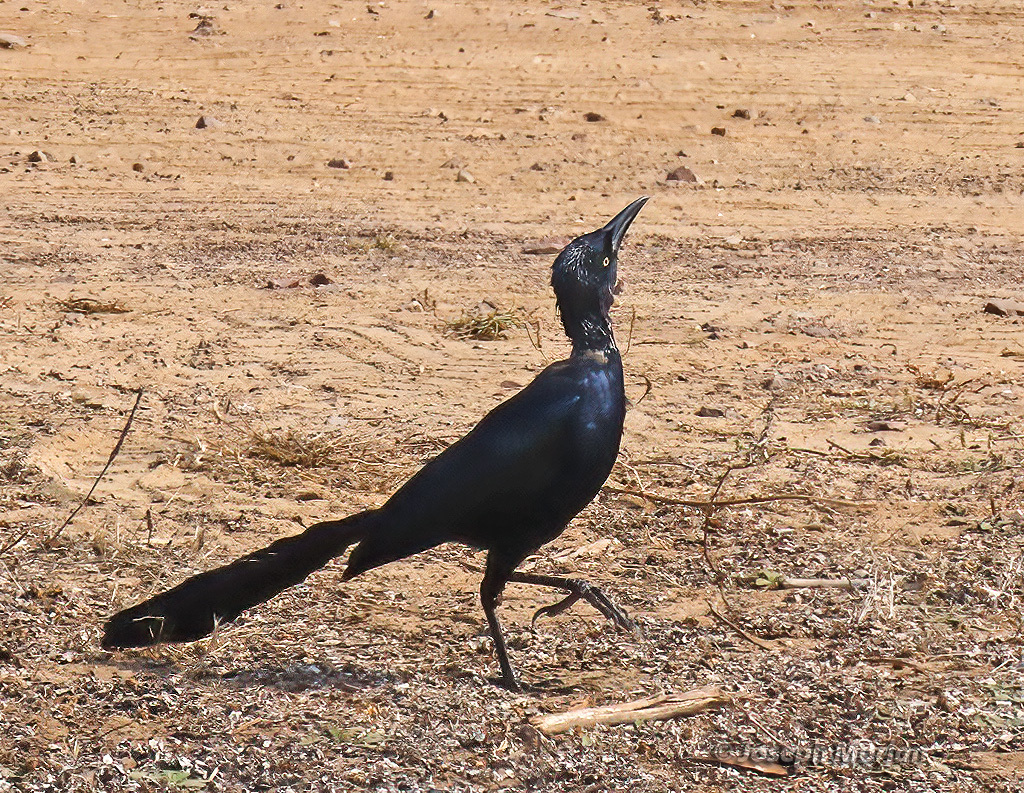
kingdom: Animalia
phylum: Chordata
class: Aves
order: Passeriformes
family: Icteridae
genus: Quiscalus
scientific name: Quiscalus mexicanus
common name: Great-tailed grackle
